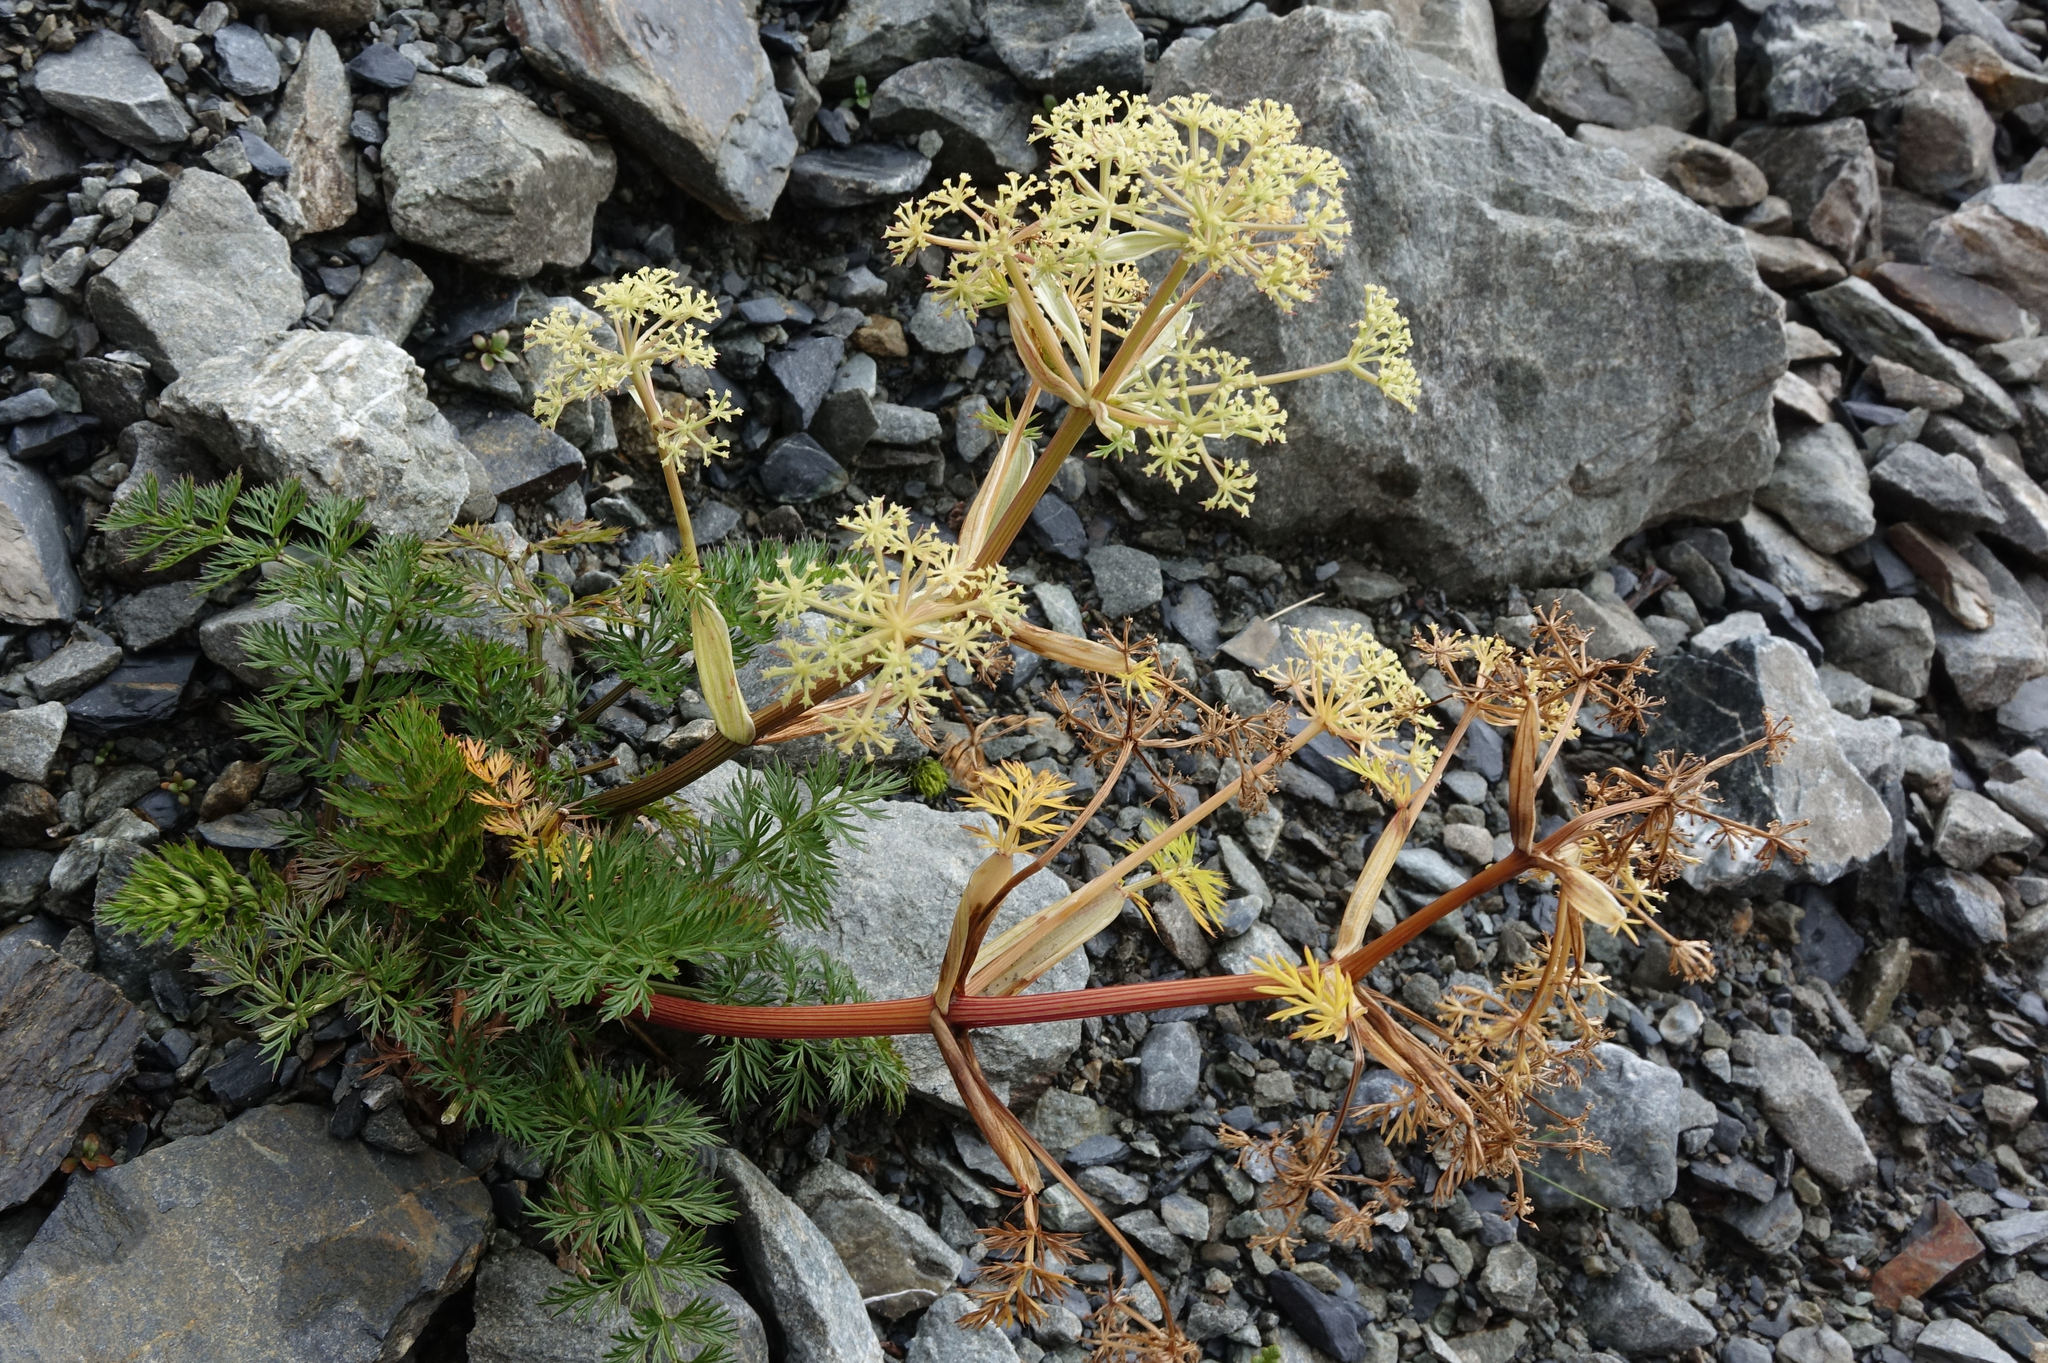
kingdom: Plantae
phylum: Tracheophyta
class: Magnoliopsida
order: Apiales
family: Apiaceae
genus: Anisotome
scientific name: Anisotome haastii
